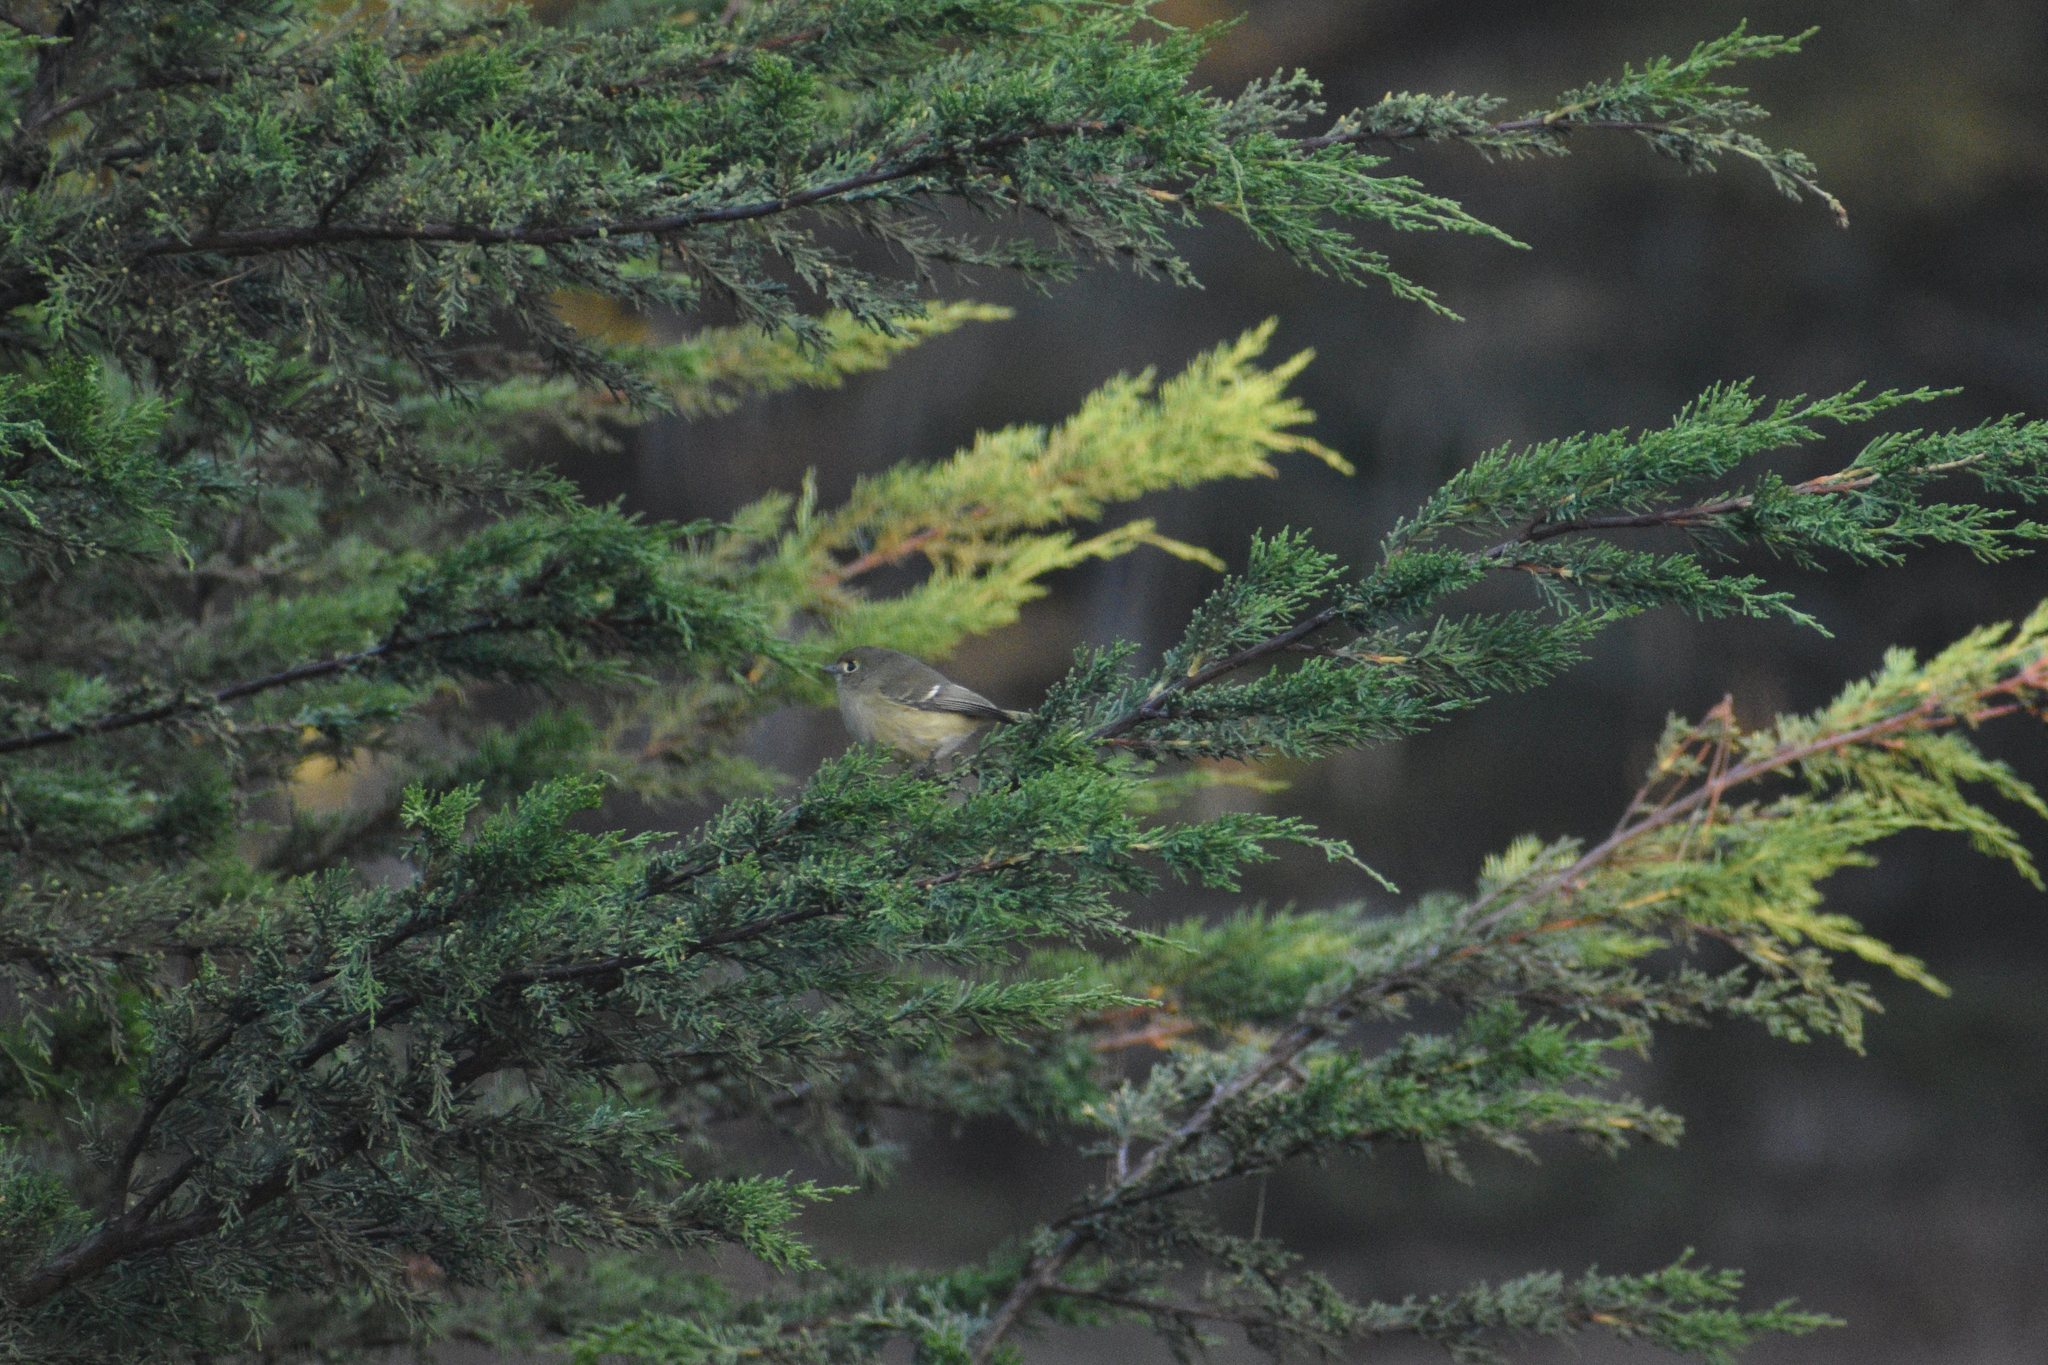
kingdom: Animalia
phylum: Chordata
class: Aves
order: Passeriformes
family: Regulidae
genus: Regulus
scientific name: Regulus calendula
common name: Ruby-crowned kinglet
